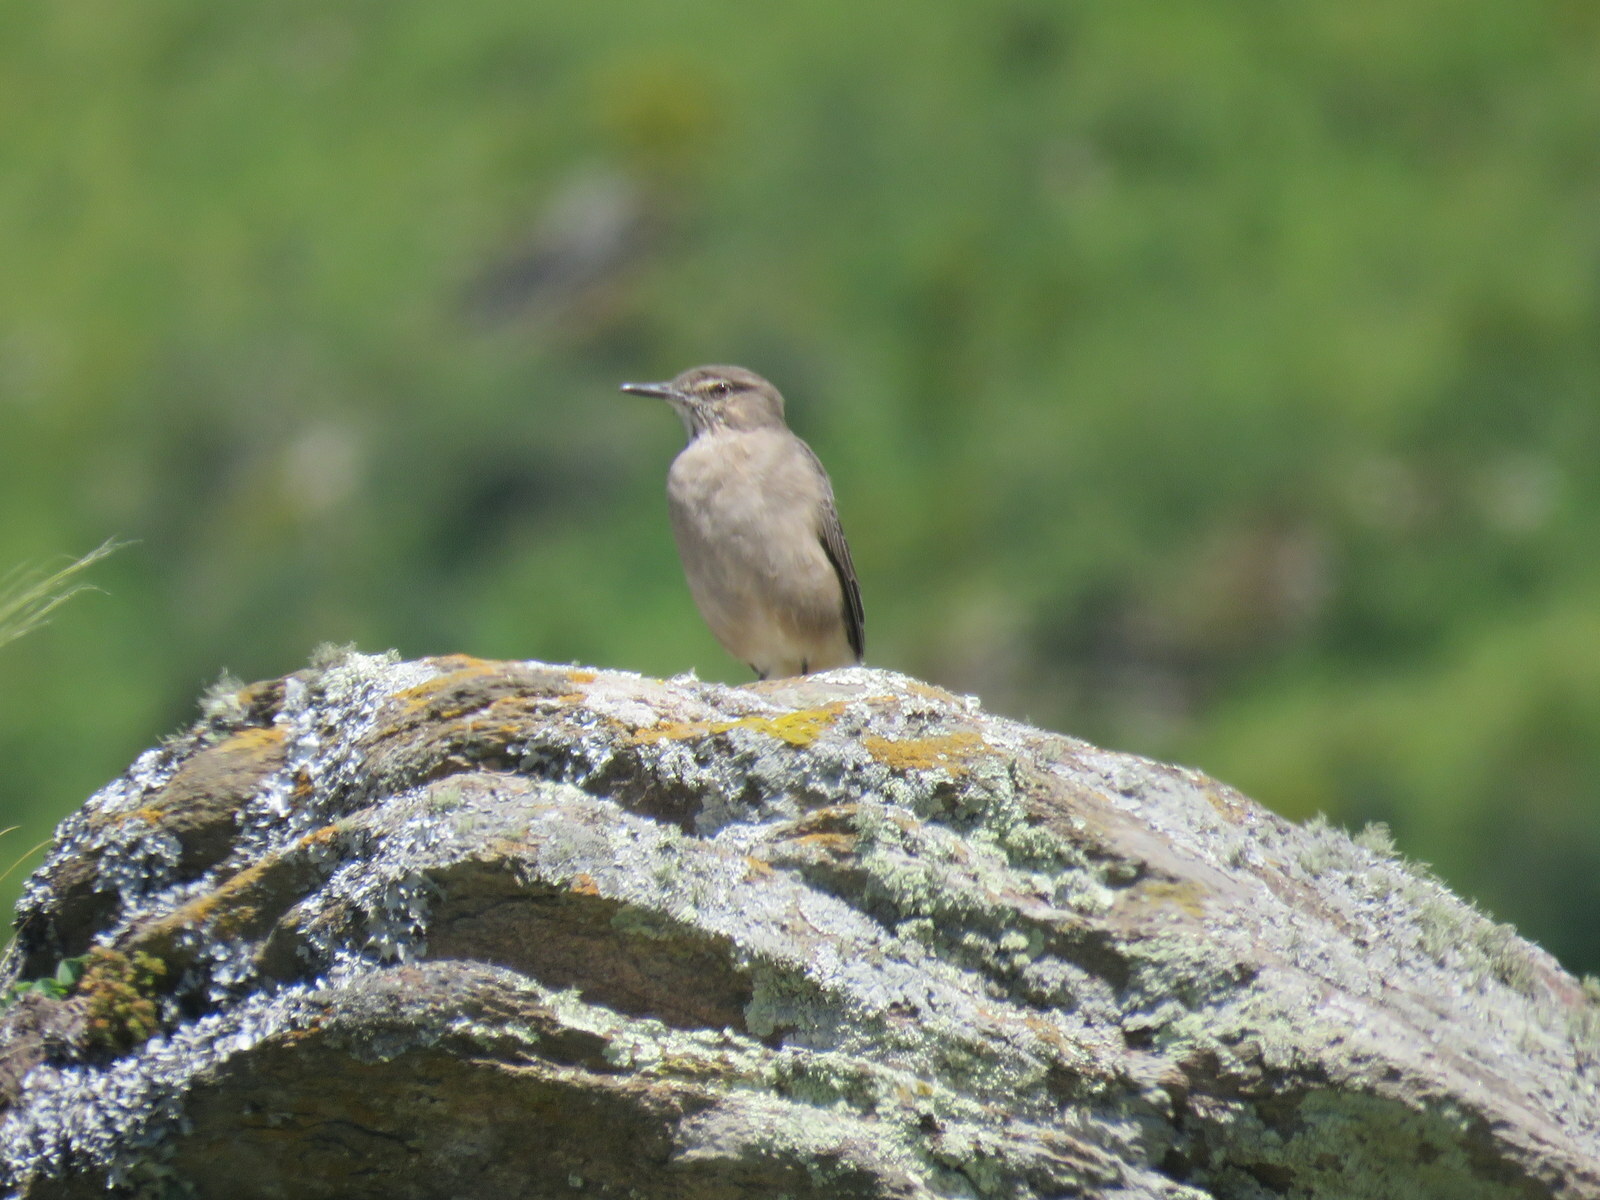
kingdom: Animalia
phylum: Chordata
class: Aves
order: Passeriformes
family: Tyrannidae
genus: Agriornis
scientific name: Agriornis montanus
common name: Black-billed shrike-tyrant
